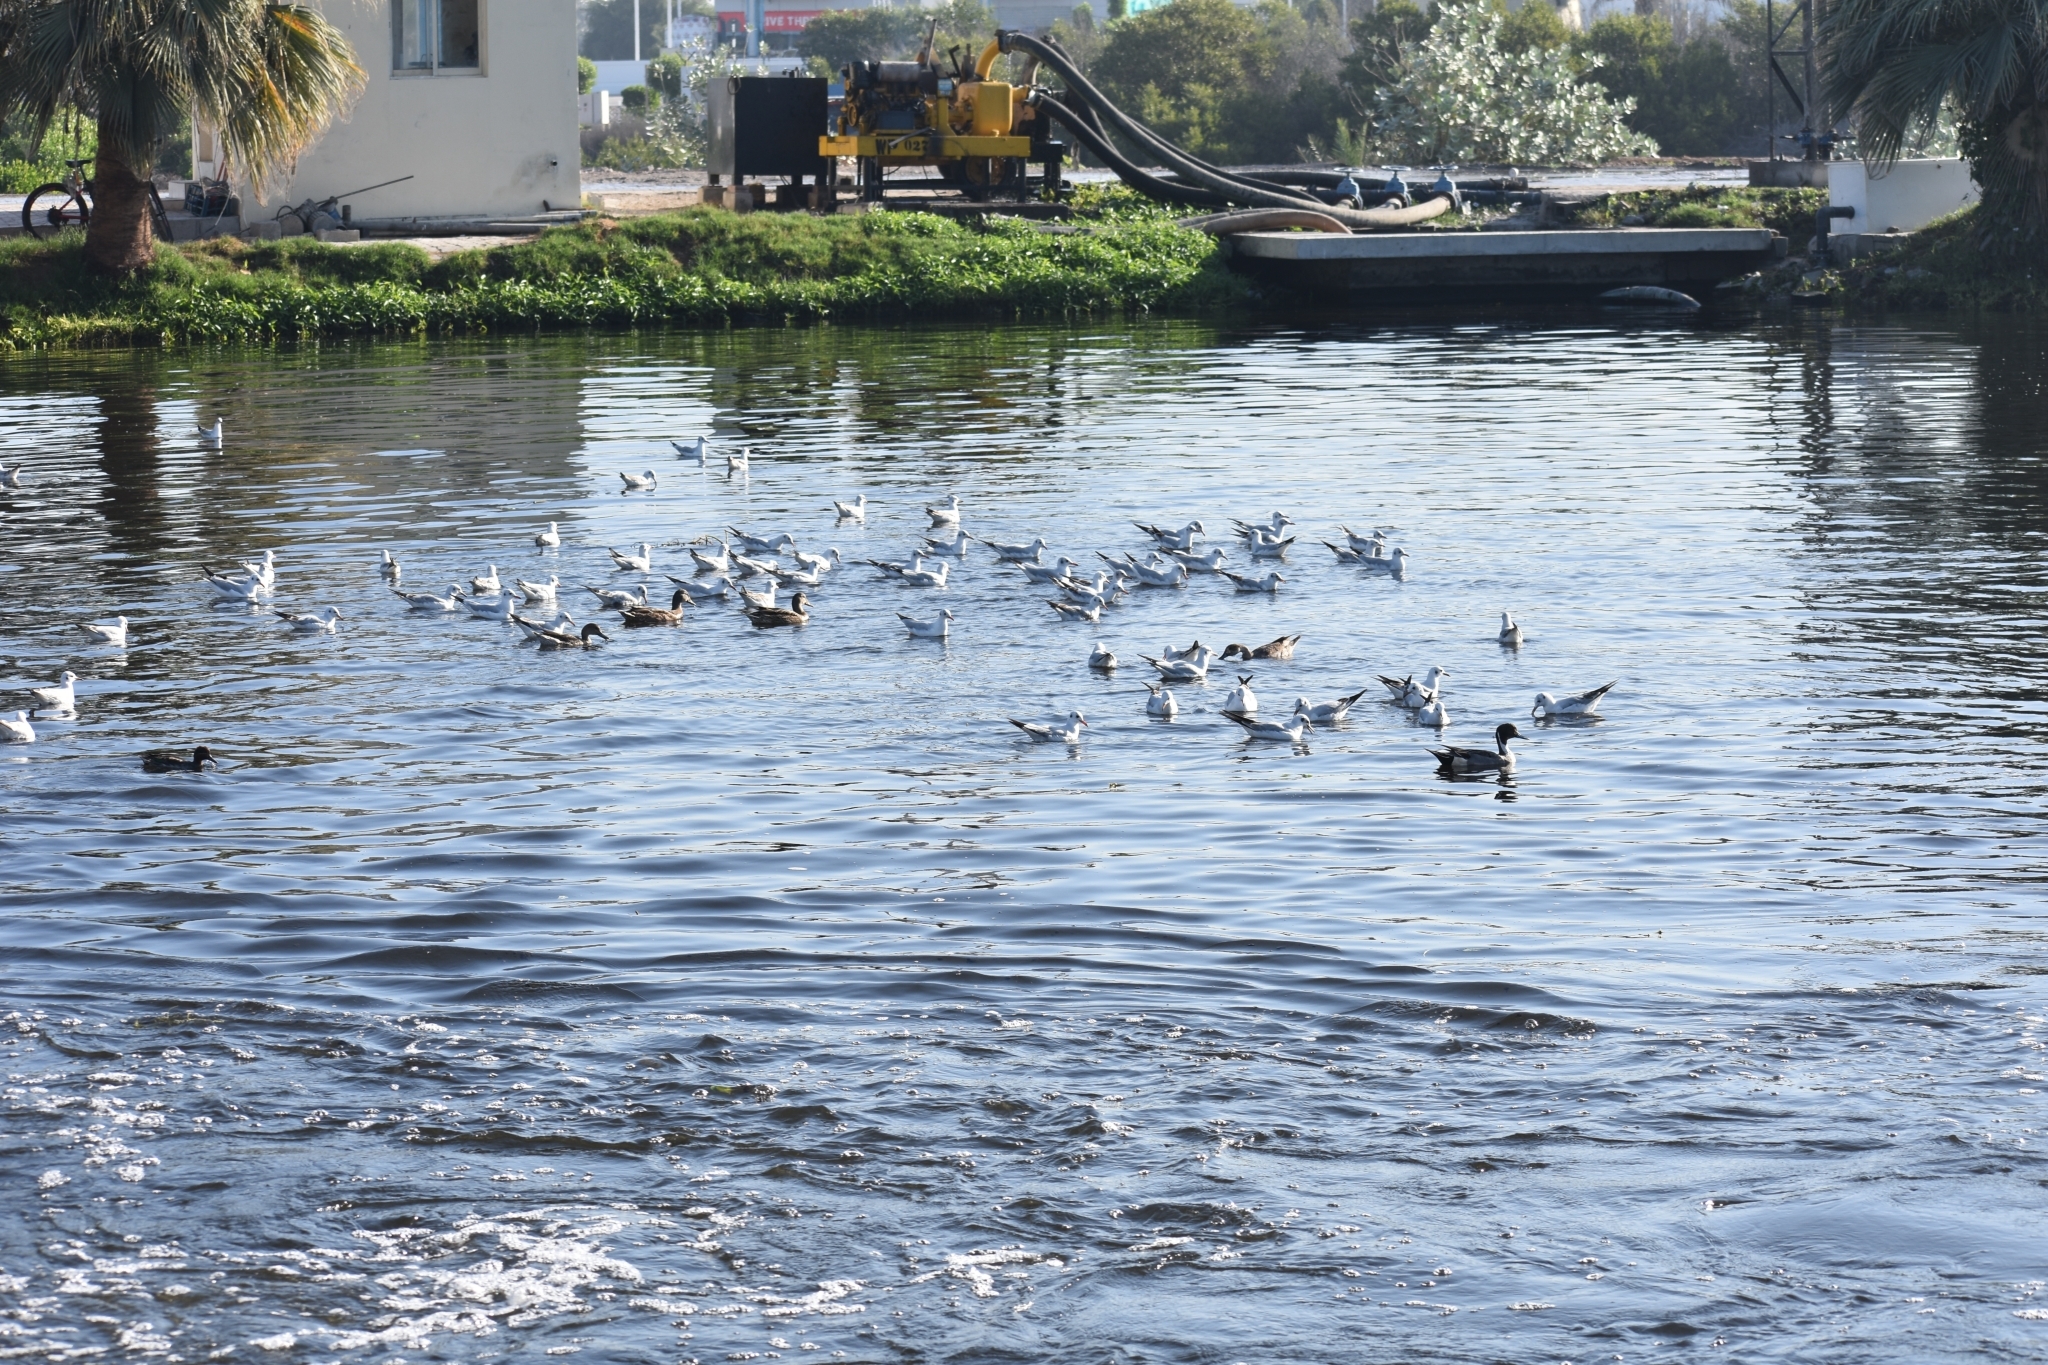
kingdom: Animalia
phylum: Chordata
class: Aves
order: Charadriiformes
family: Laridae
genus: Chroicocephalus
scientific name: Chroicocephalus ridibundus
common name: Black-headed gull
